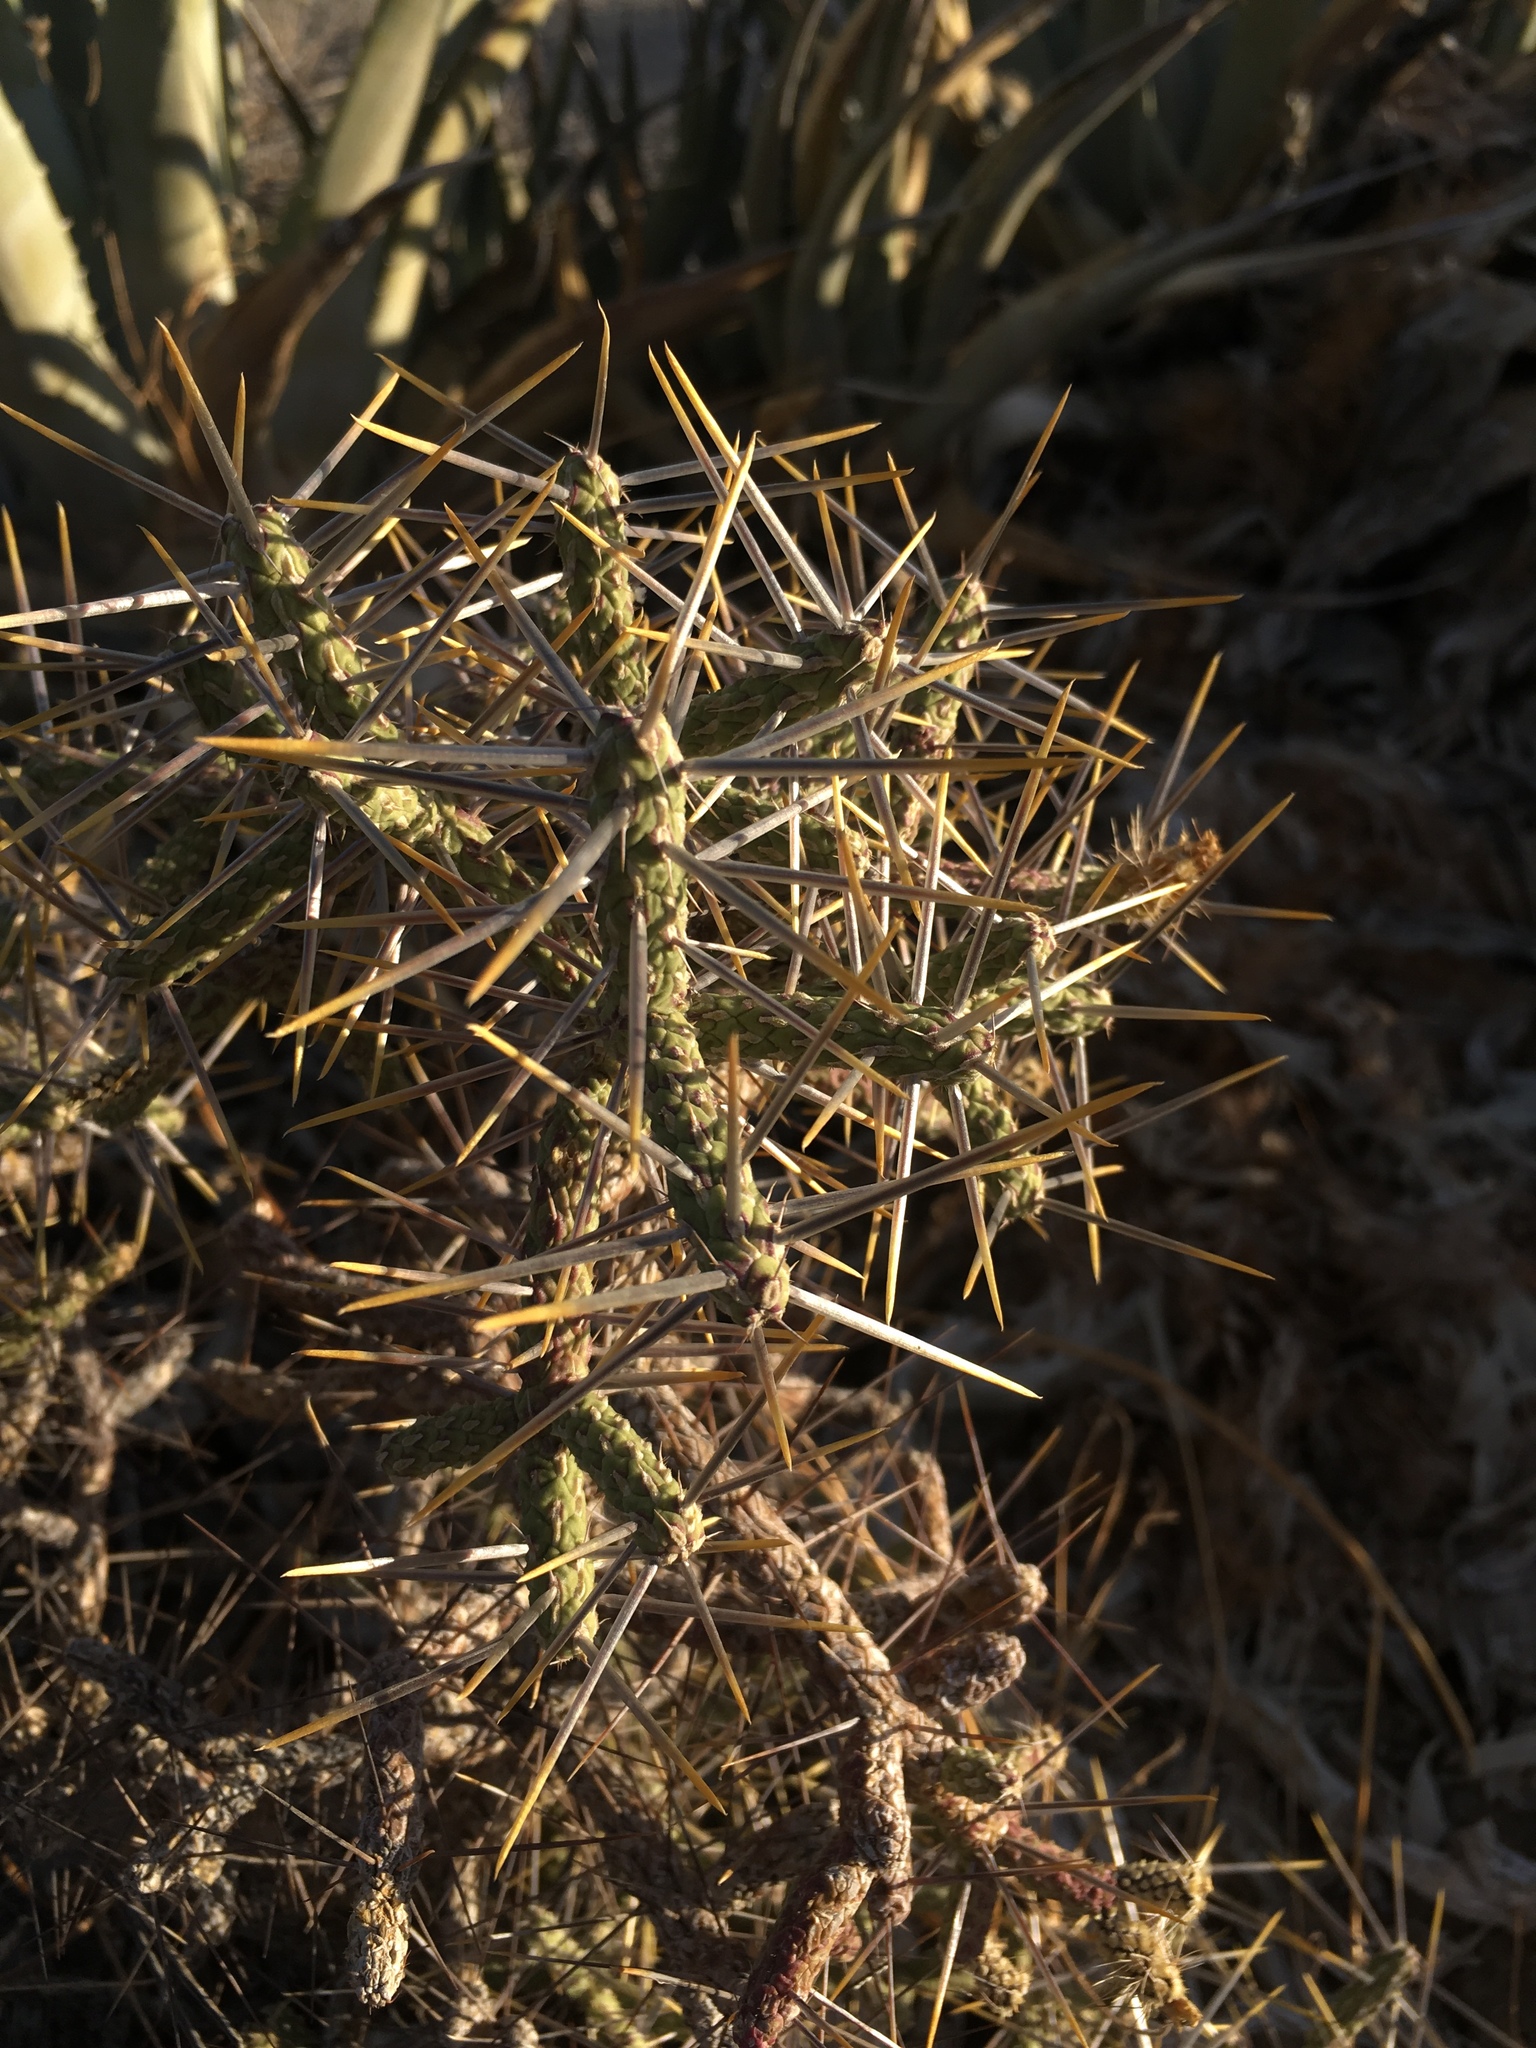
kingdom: Plantae
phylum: Tracheophyta
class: Magnoliopsida
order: Caryophyllales
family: Cactaceae
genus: Cylindropuntia
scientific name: Cylindropuntia ramosissima
